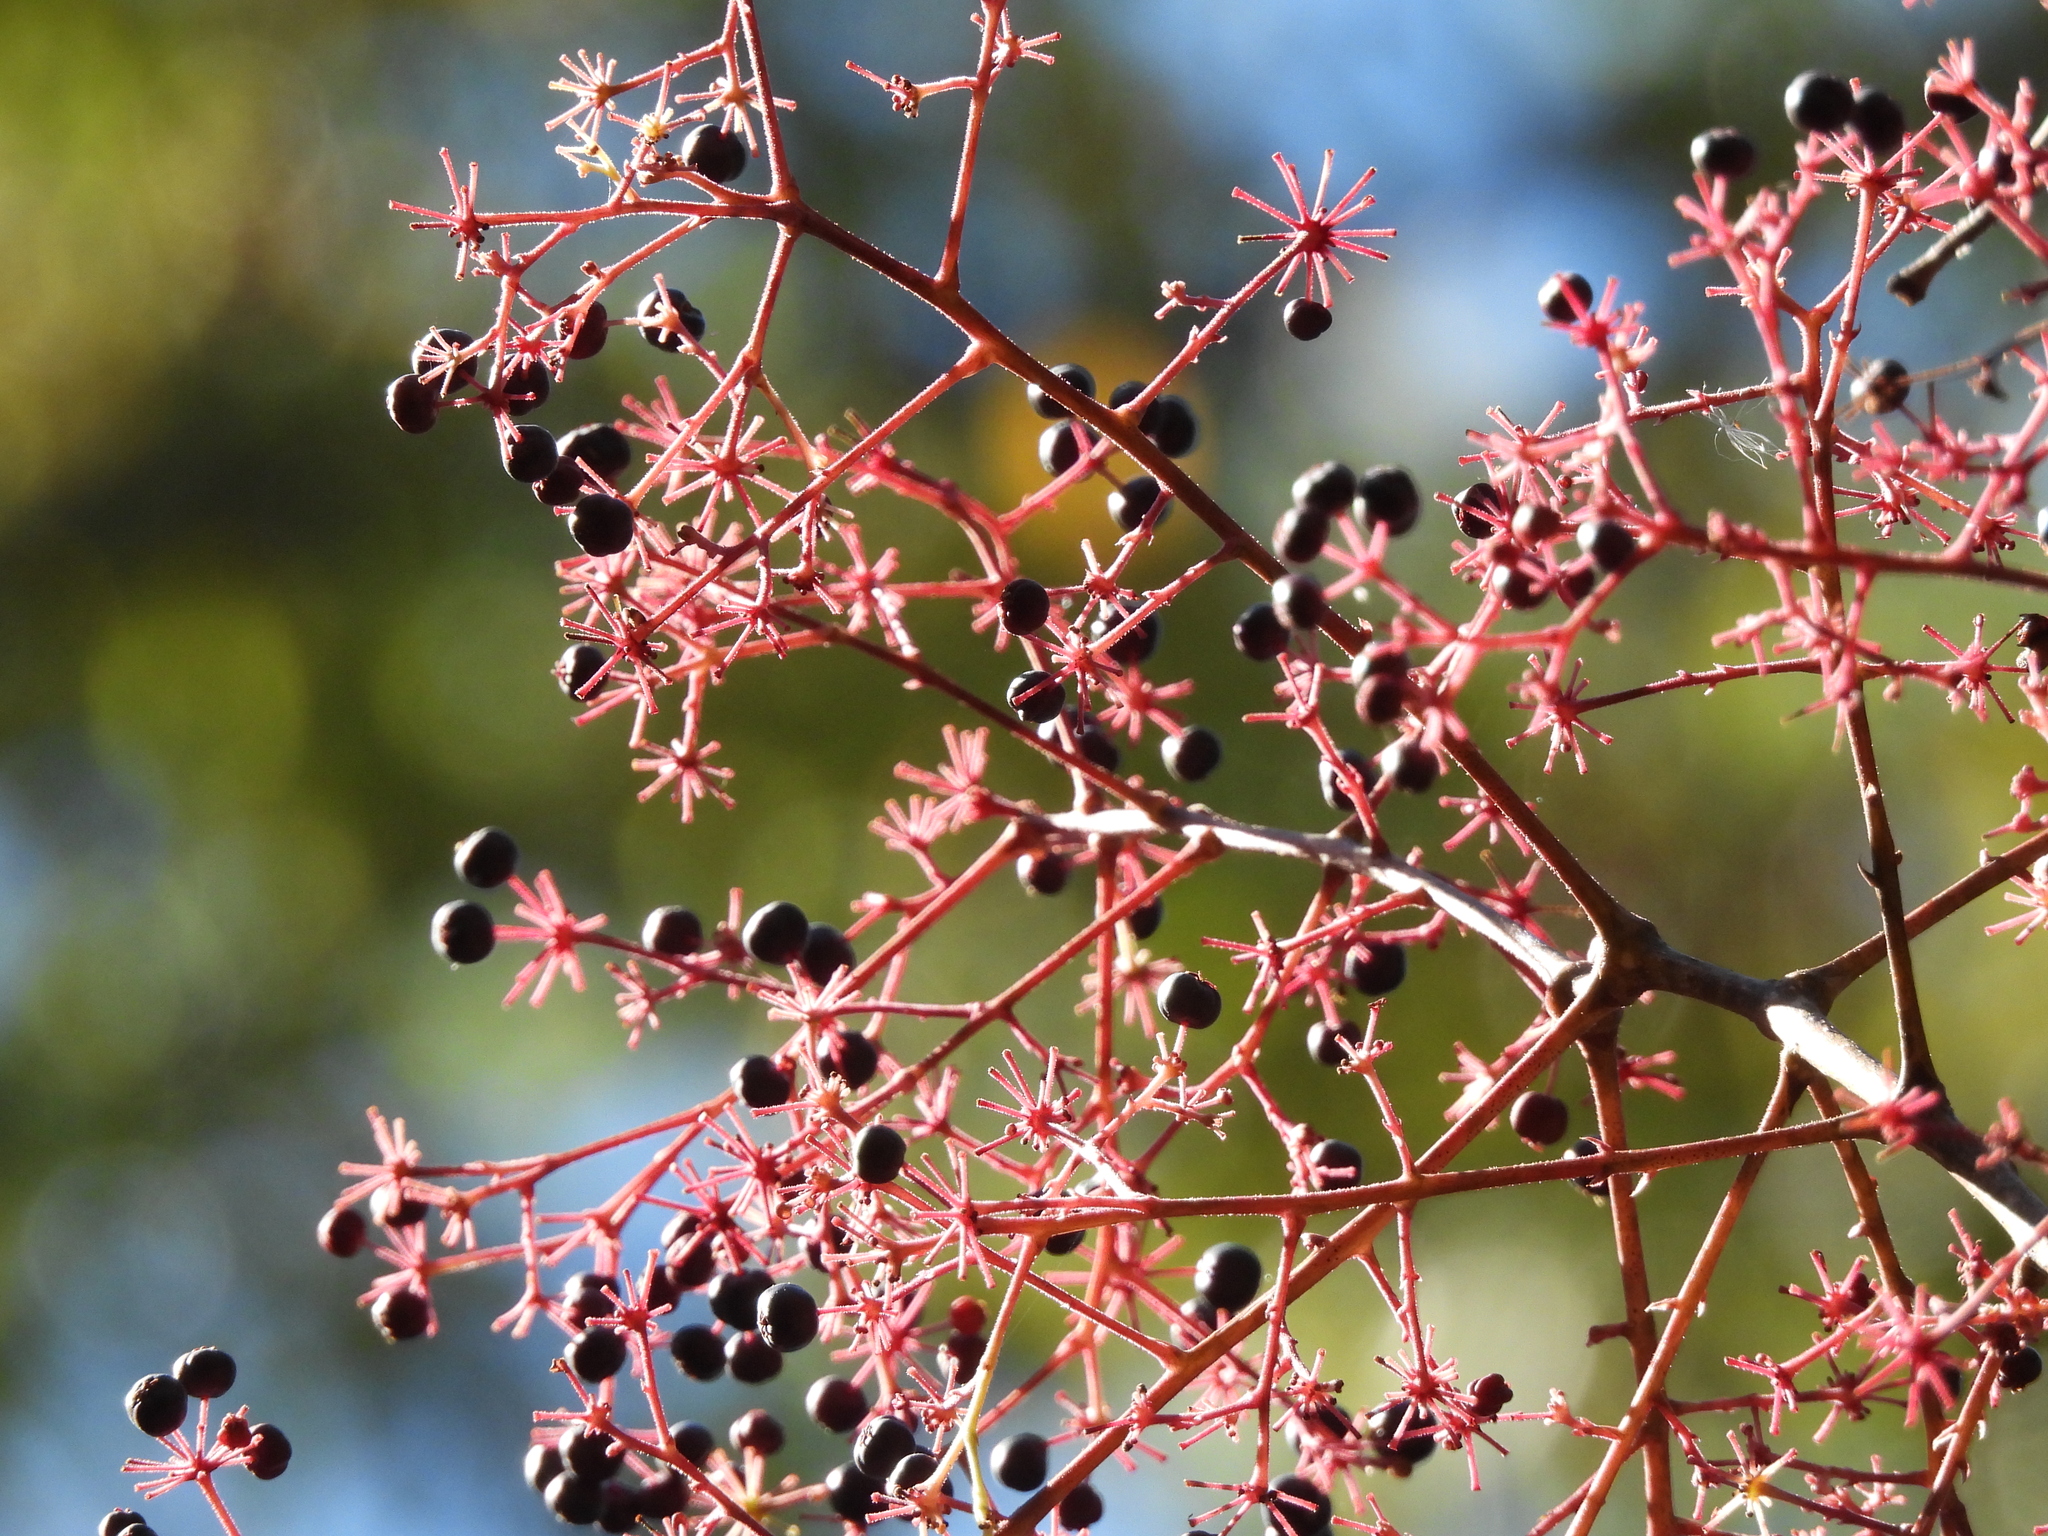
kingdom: Plantae
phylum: Tracheophyta
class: Magnoliopsida
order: Apiales
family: Araliaceae
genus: Aralia
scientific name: Aralia spinosa
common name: Hercules'-club
